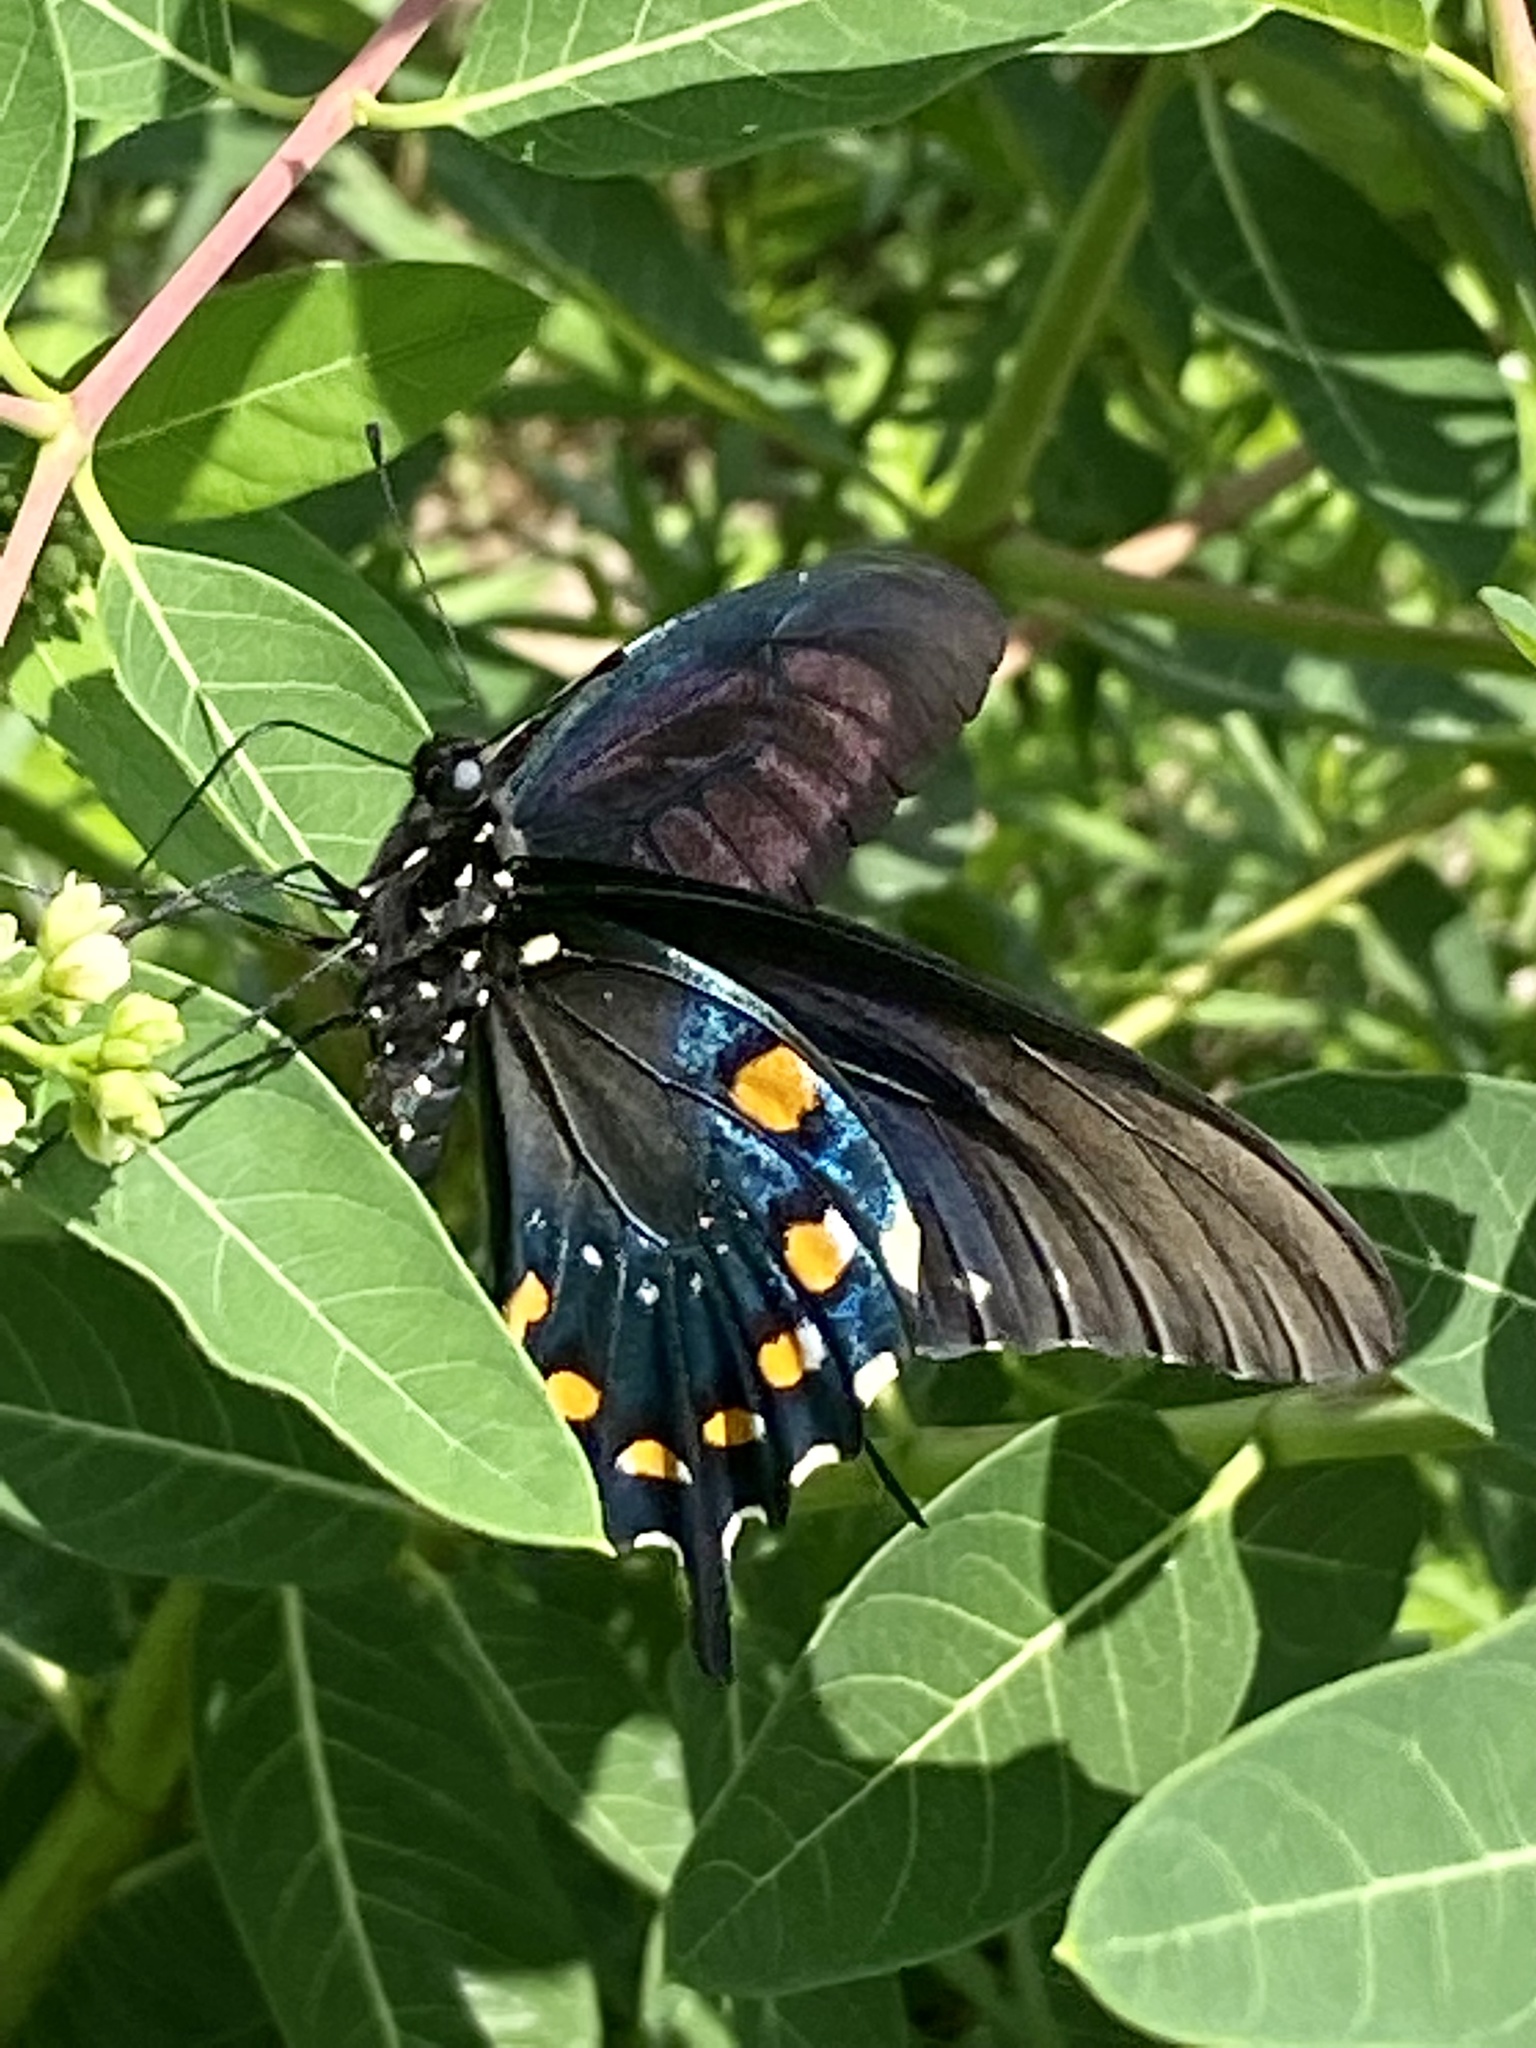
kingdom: Animalia
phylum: Arthropoda
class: Insecta
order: Lepidoptera
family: Papilionidae
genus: Battus
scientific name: Battus philenor
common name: Pipevine swallowtail
